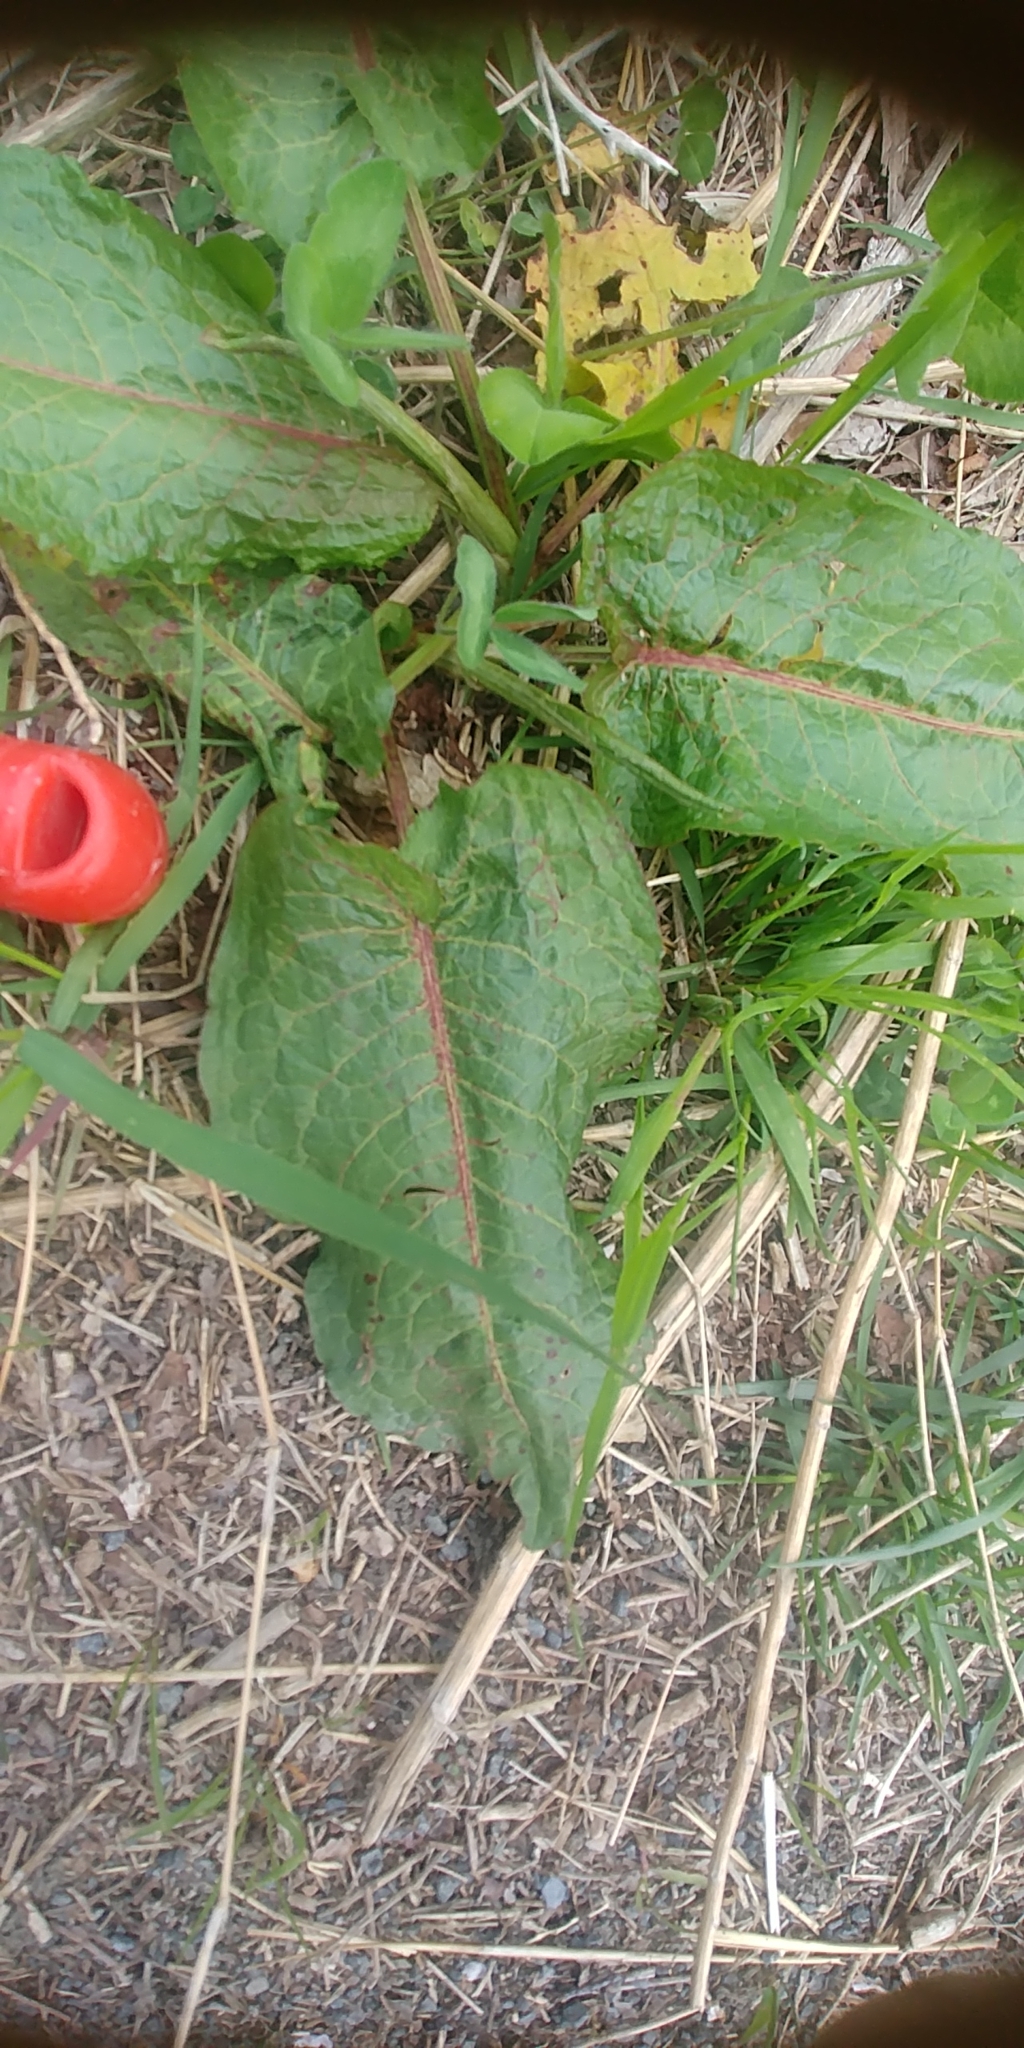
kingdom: Plantae
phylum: Tracheophyta
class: Magnoliopsida
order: Asterales
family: Asteraceae
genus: Arctium
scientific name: Arctium
